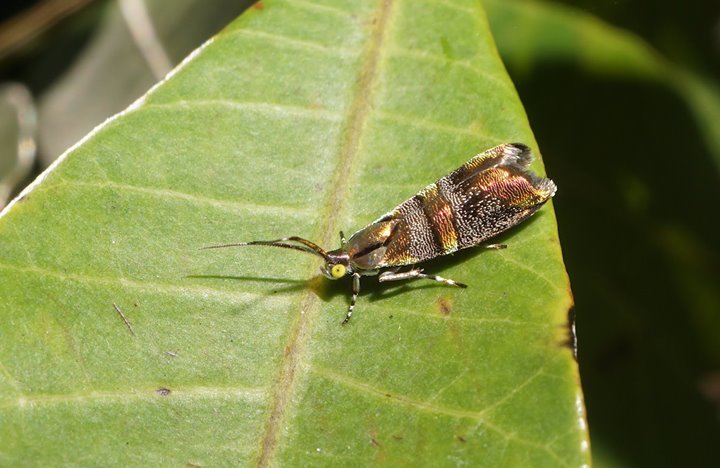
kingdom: Animalia
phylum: Arthropoda
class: Insecta
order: Lepidoptera
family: Choreutidae
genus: Tortyra
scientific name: Tortyra slossonia
